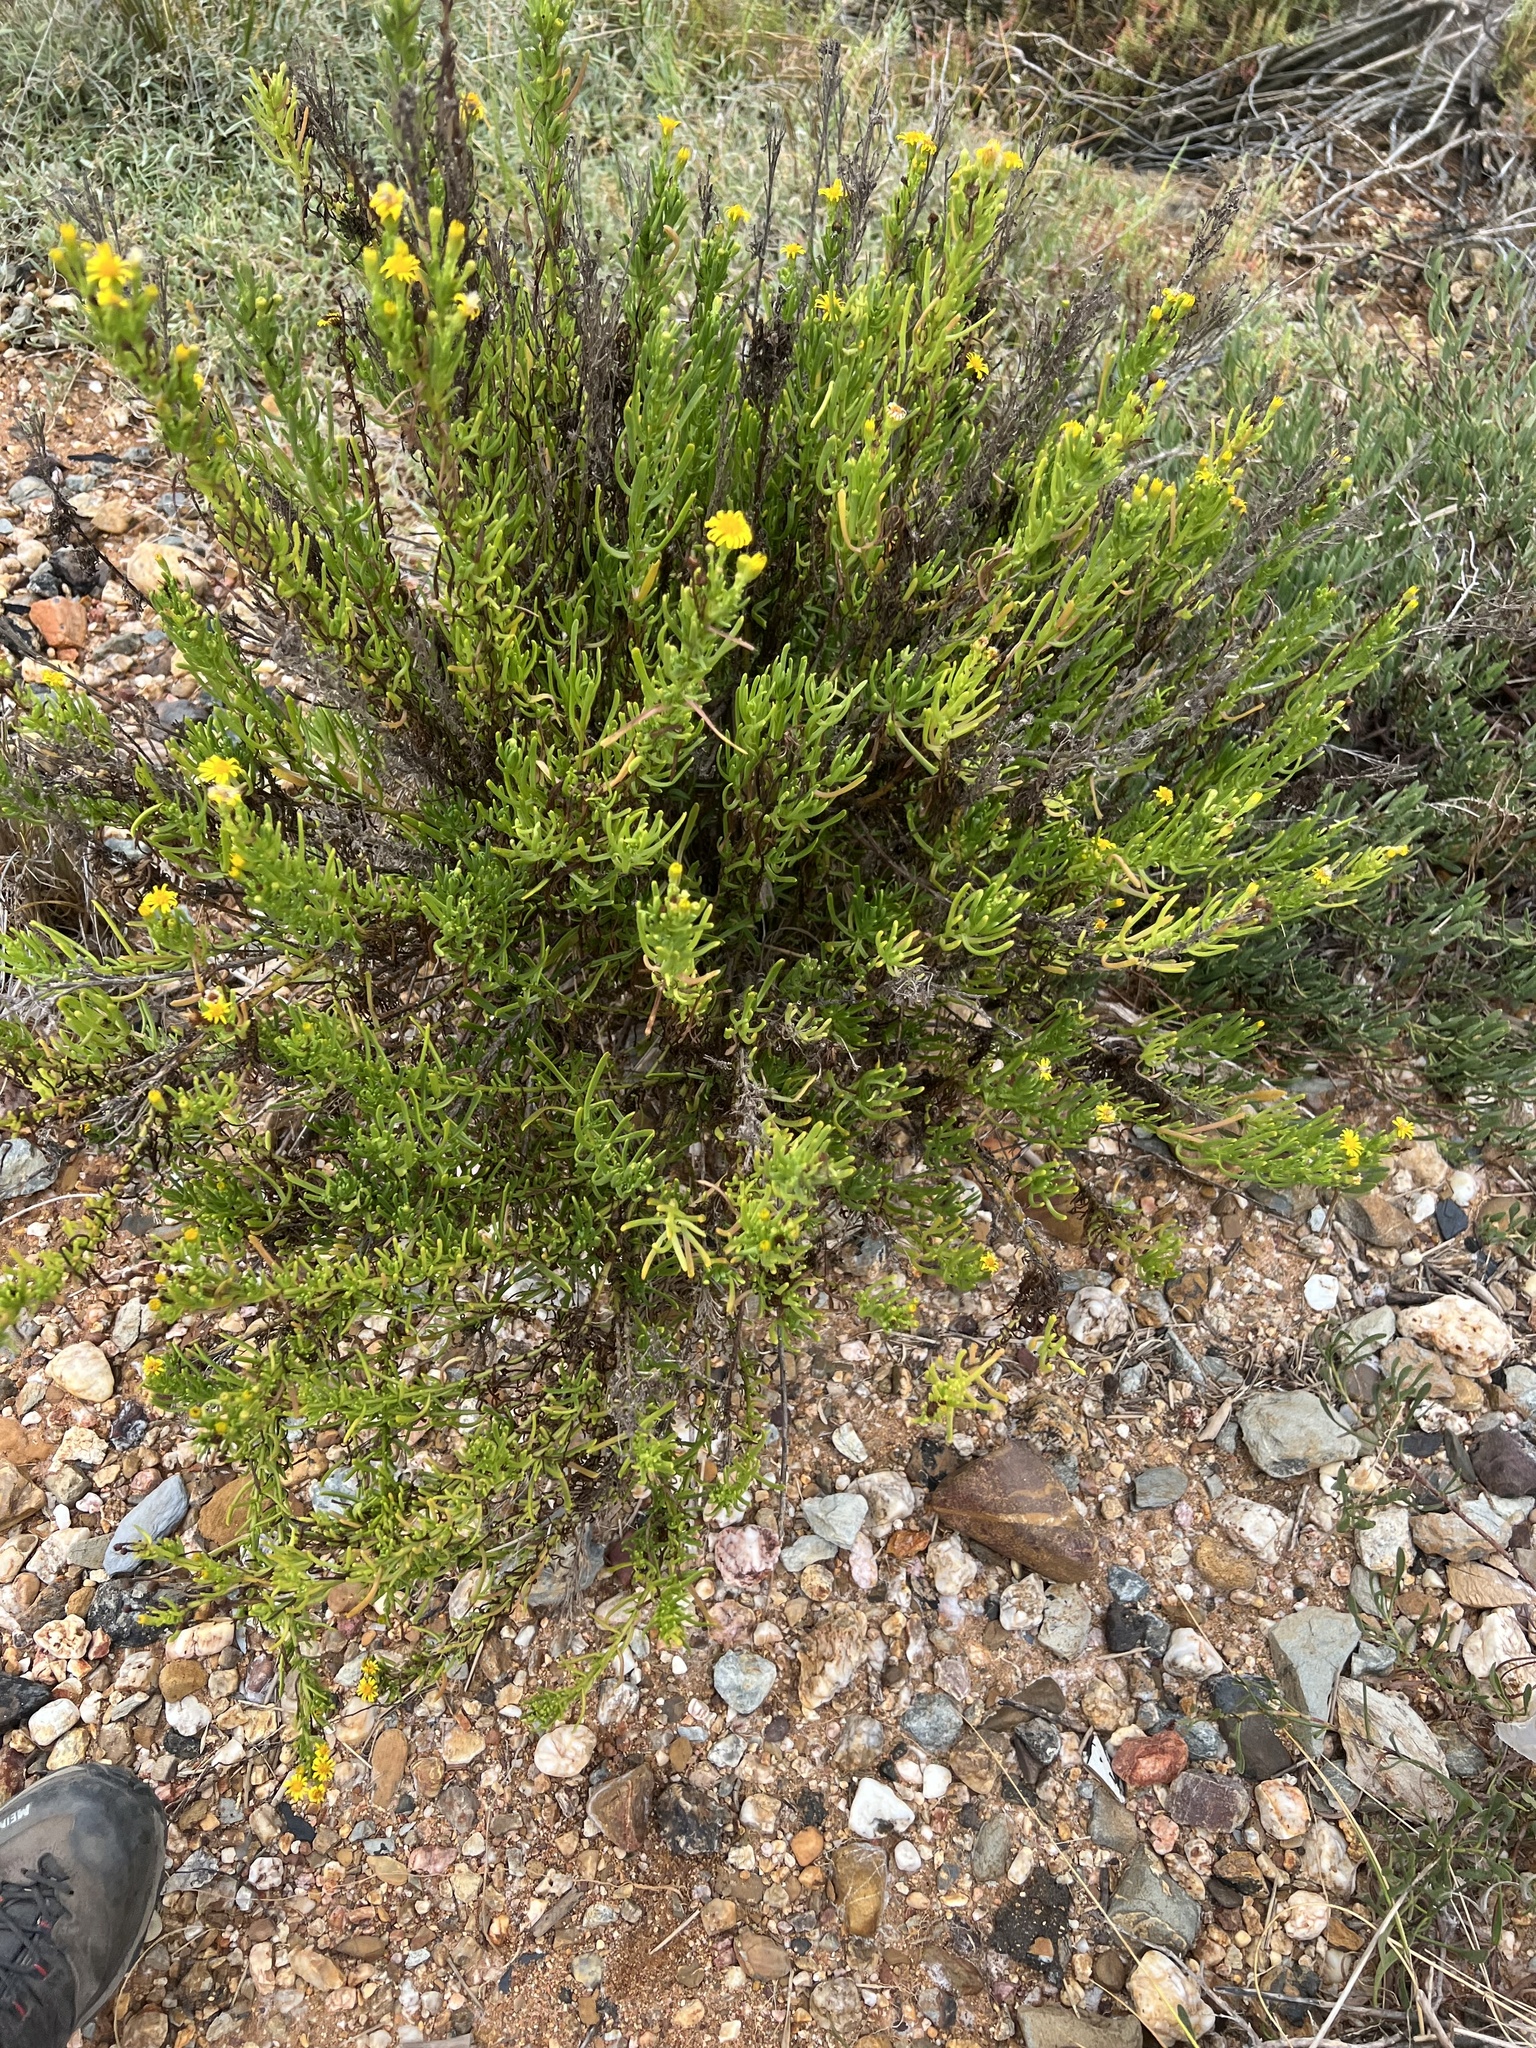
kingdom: Plantae
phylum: Tracheophyta
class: Magnoliopsida
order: Asterales
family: Asteraceae
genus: Limbarda
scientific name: Limbarda crithmoides
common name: Golden samphire
